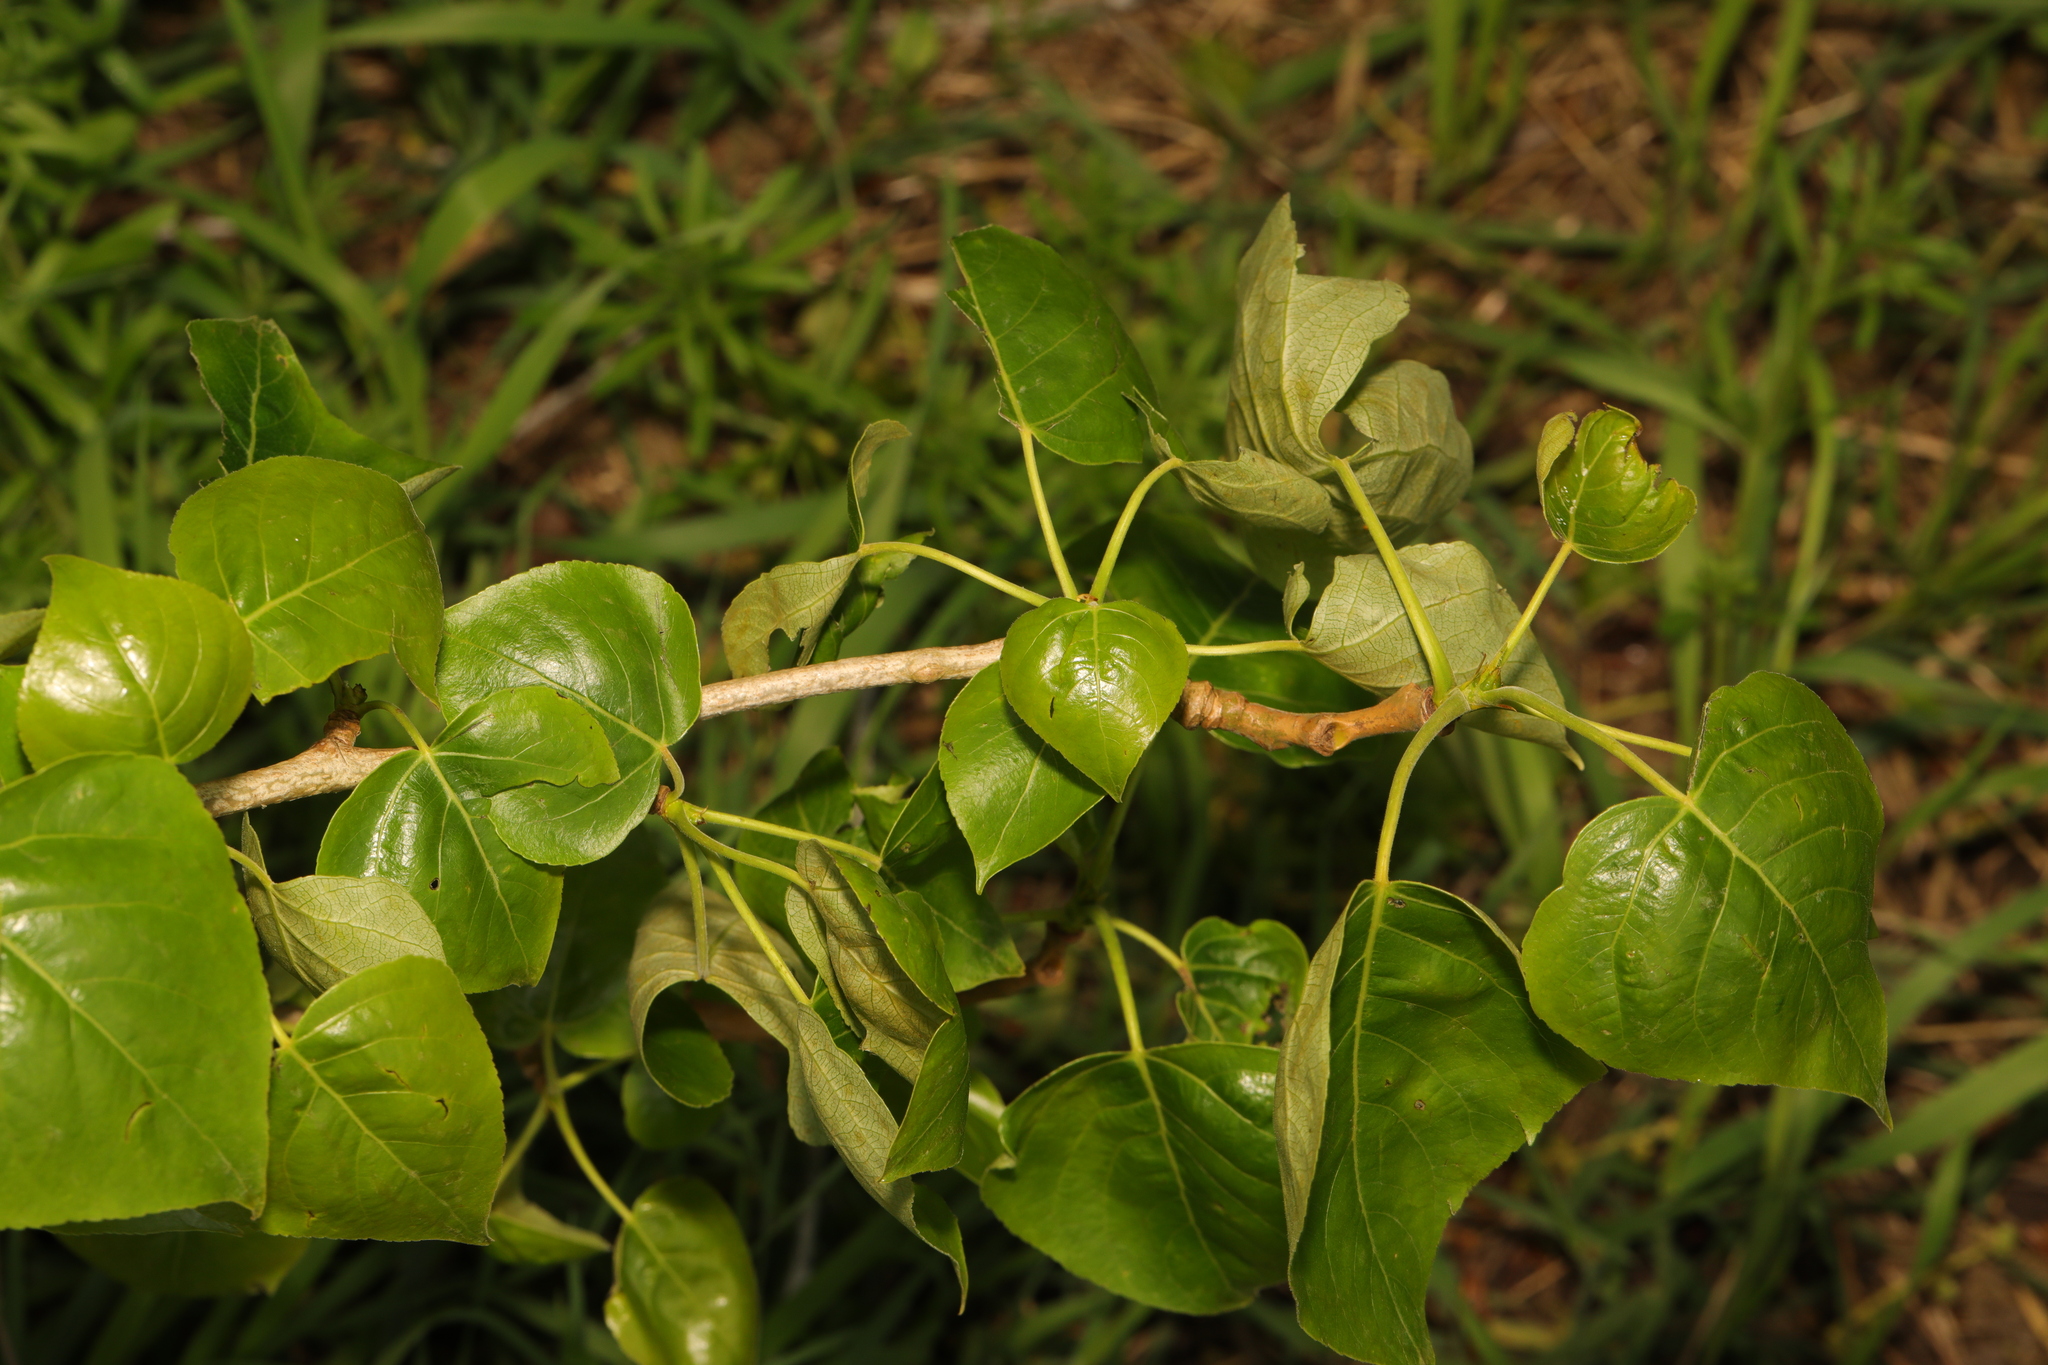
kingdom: Plantae
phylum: Tracheophyta
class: Magnoliopsida
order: Malpighiales
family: Salicaceae
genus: Populus
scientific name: Populus hastata
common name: Black cottonwood
